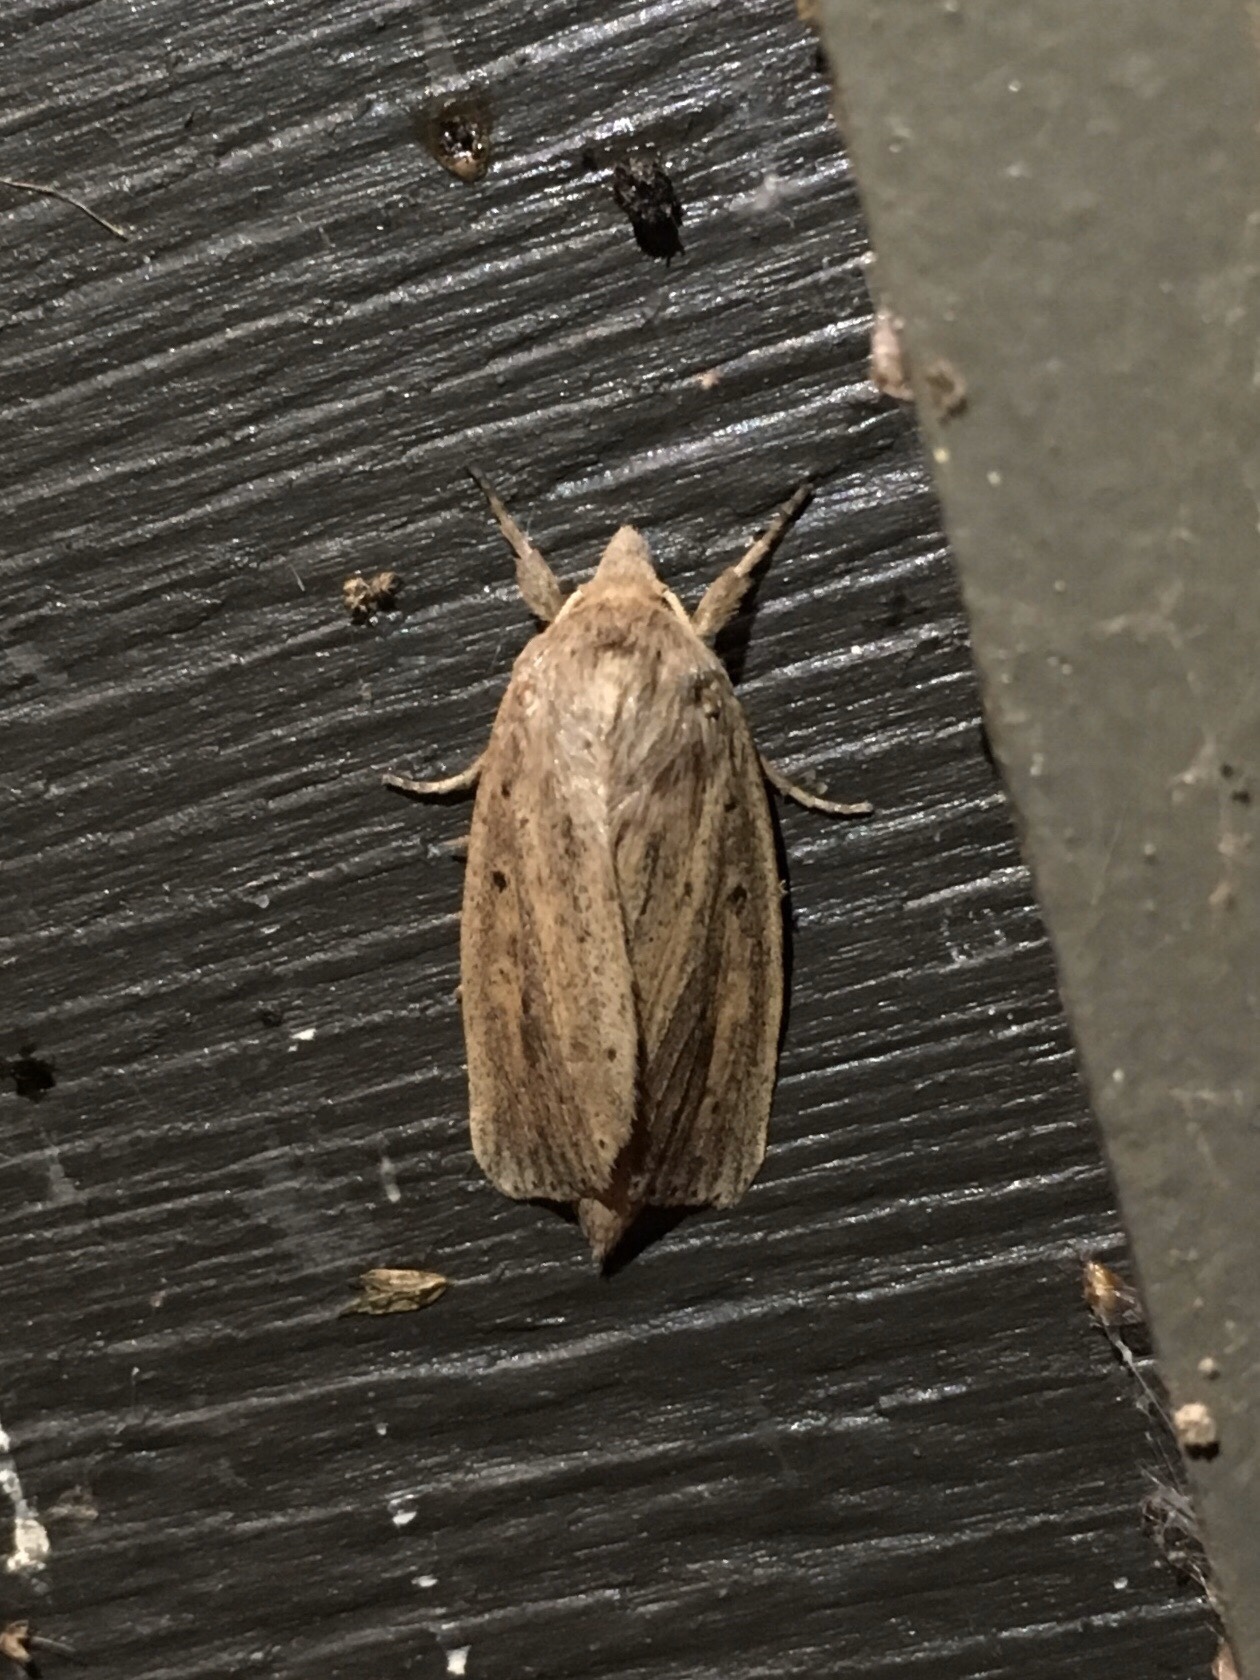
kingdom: Animalia
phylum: Arthropoda
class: Insecta
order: Lepidoptera
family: Noctuidae
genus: Globia
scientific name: Globia oblonga
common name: Oblong sedge borer moth
